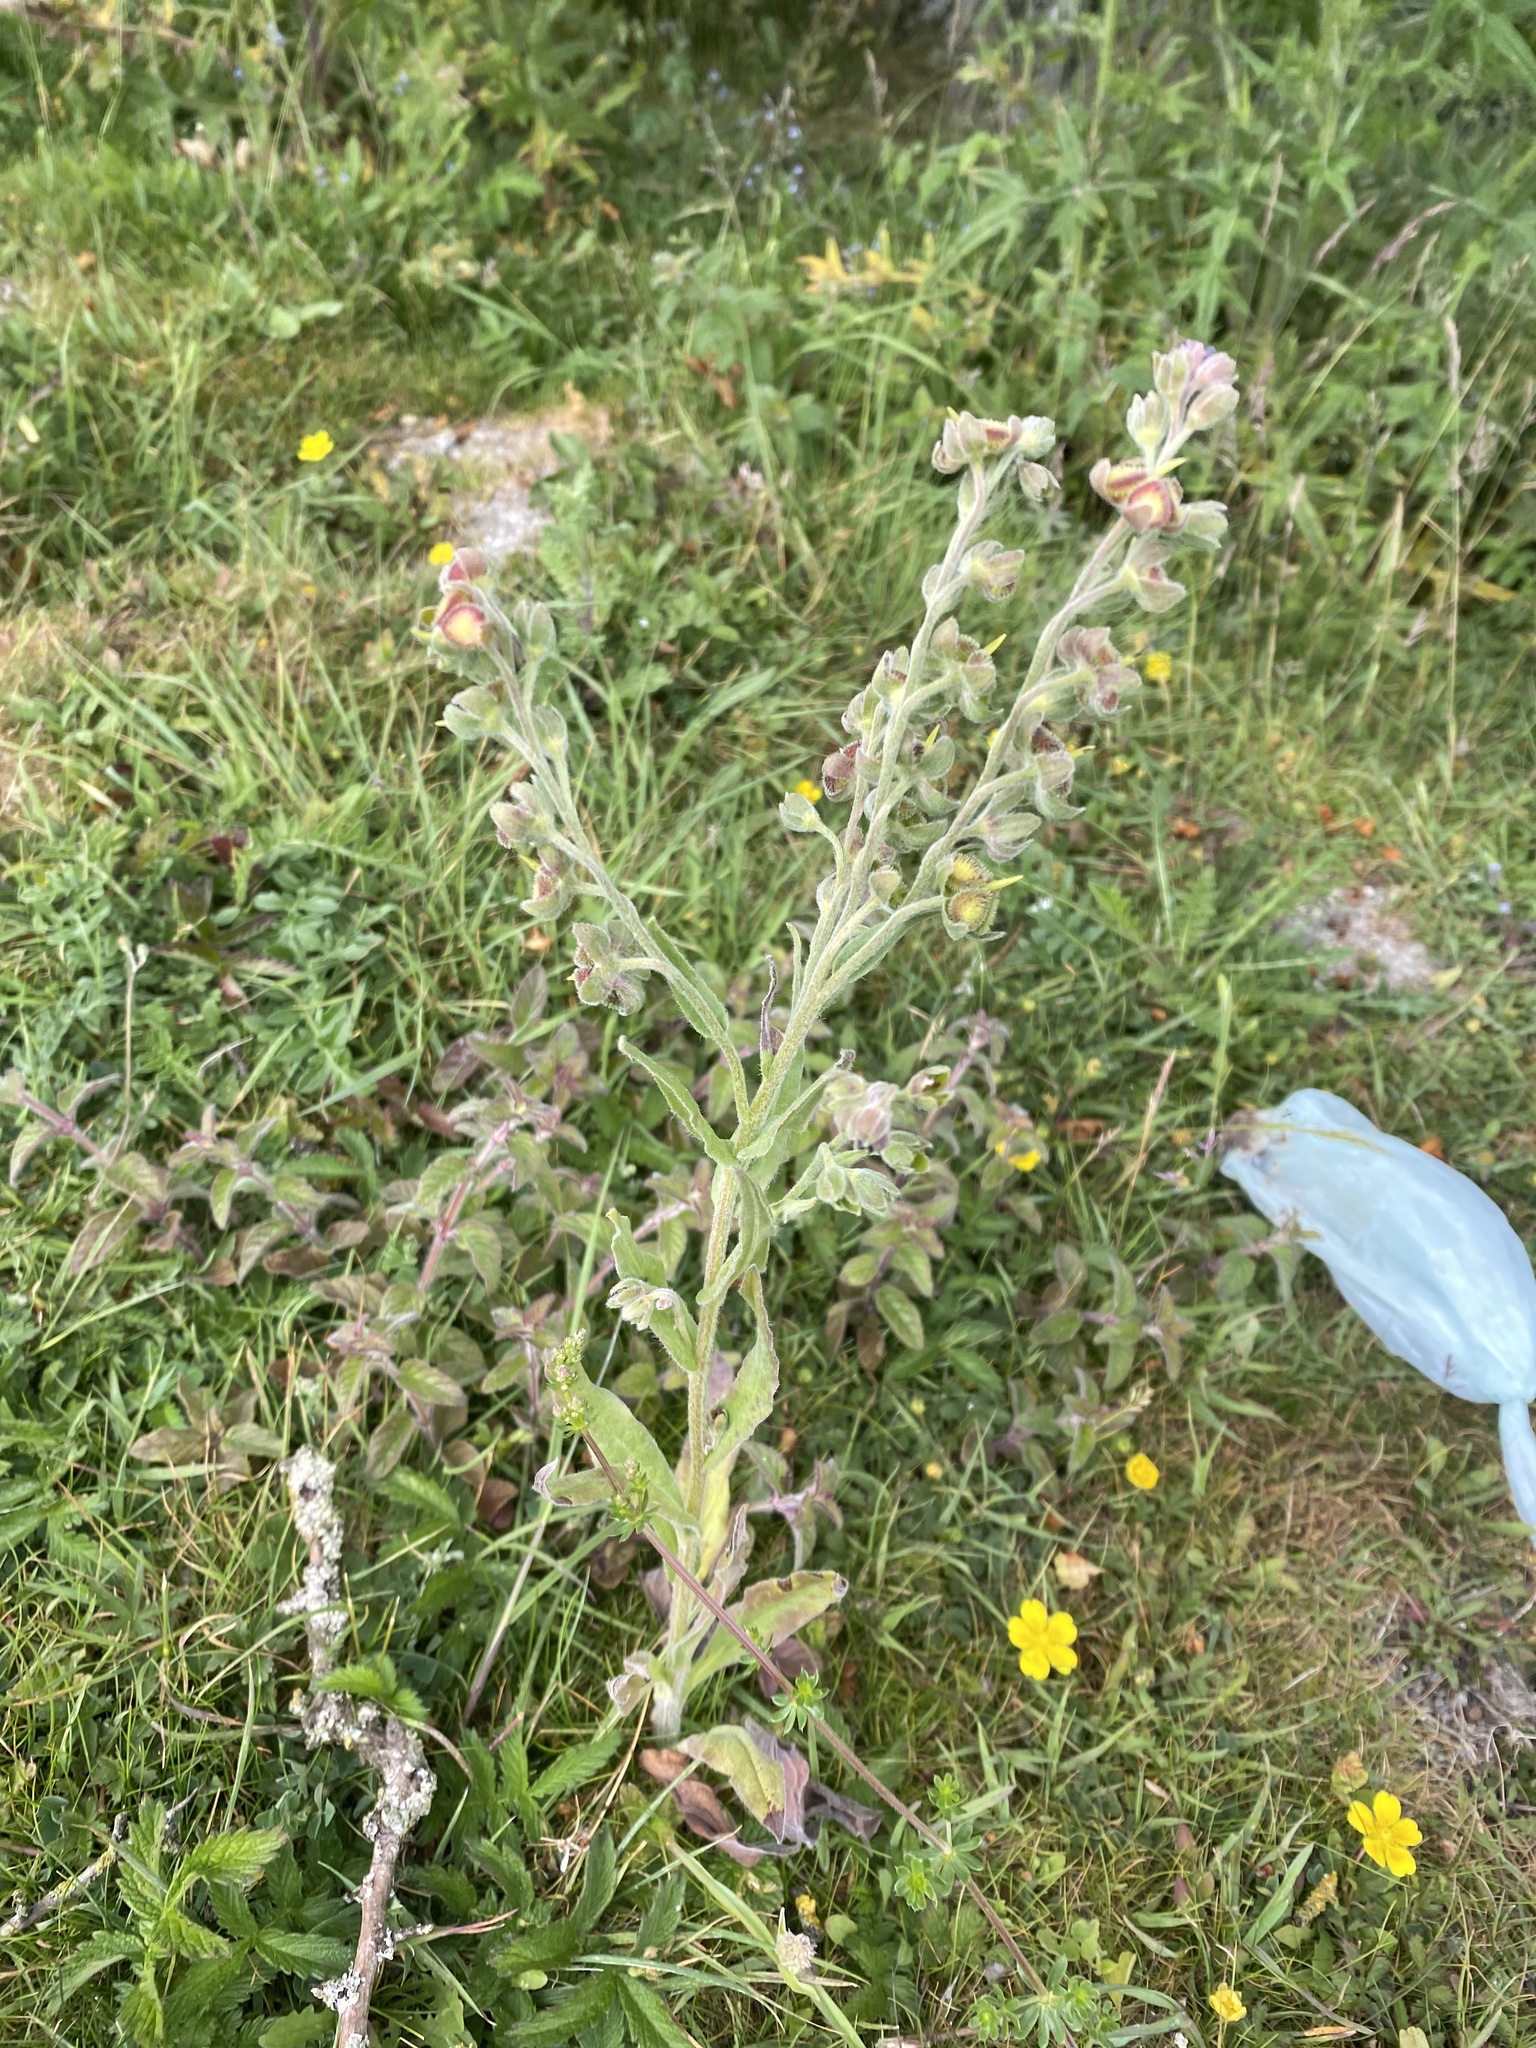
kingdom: Plantae
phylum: Tracheophyta
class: Magnoliopsida
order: Boraginales
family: Boraginaceae
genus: Cynoglossum
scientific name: Cynoglossum officinale
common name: Hound's-tongue
